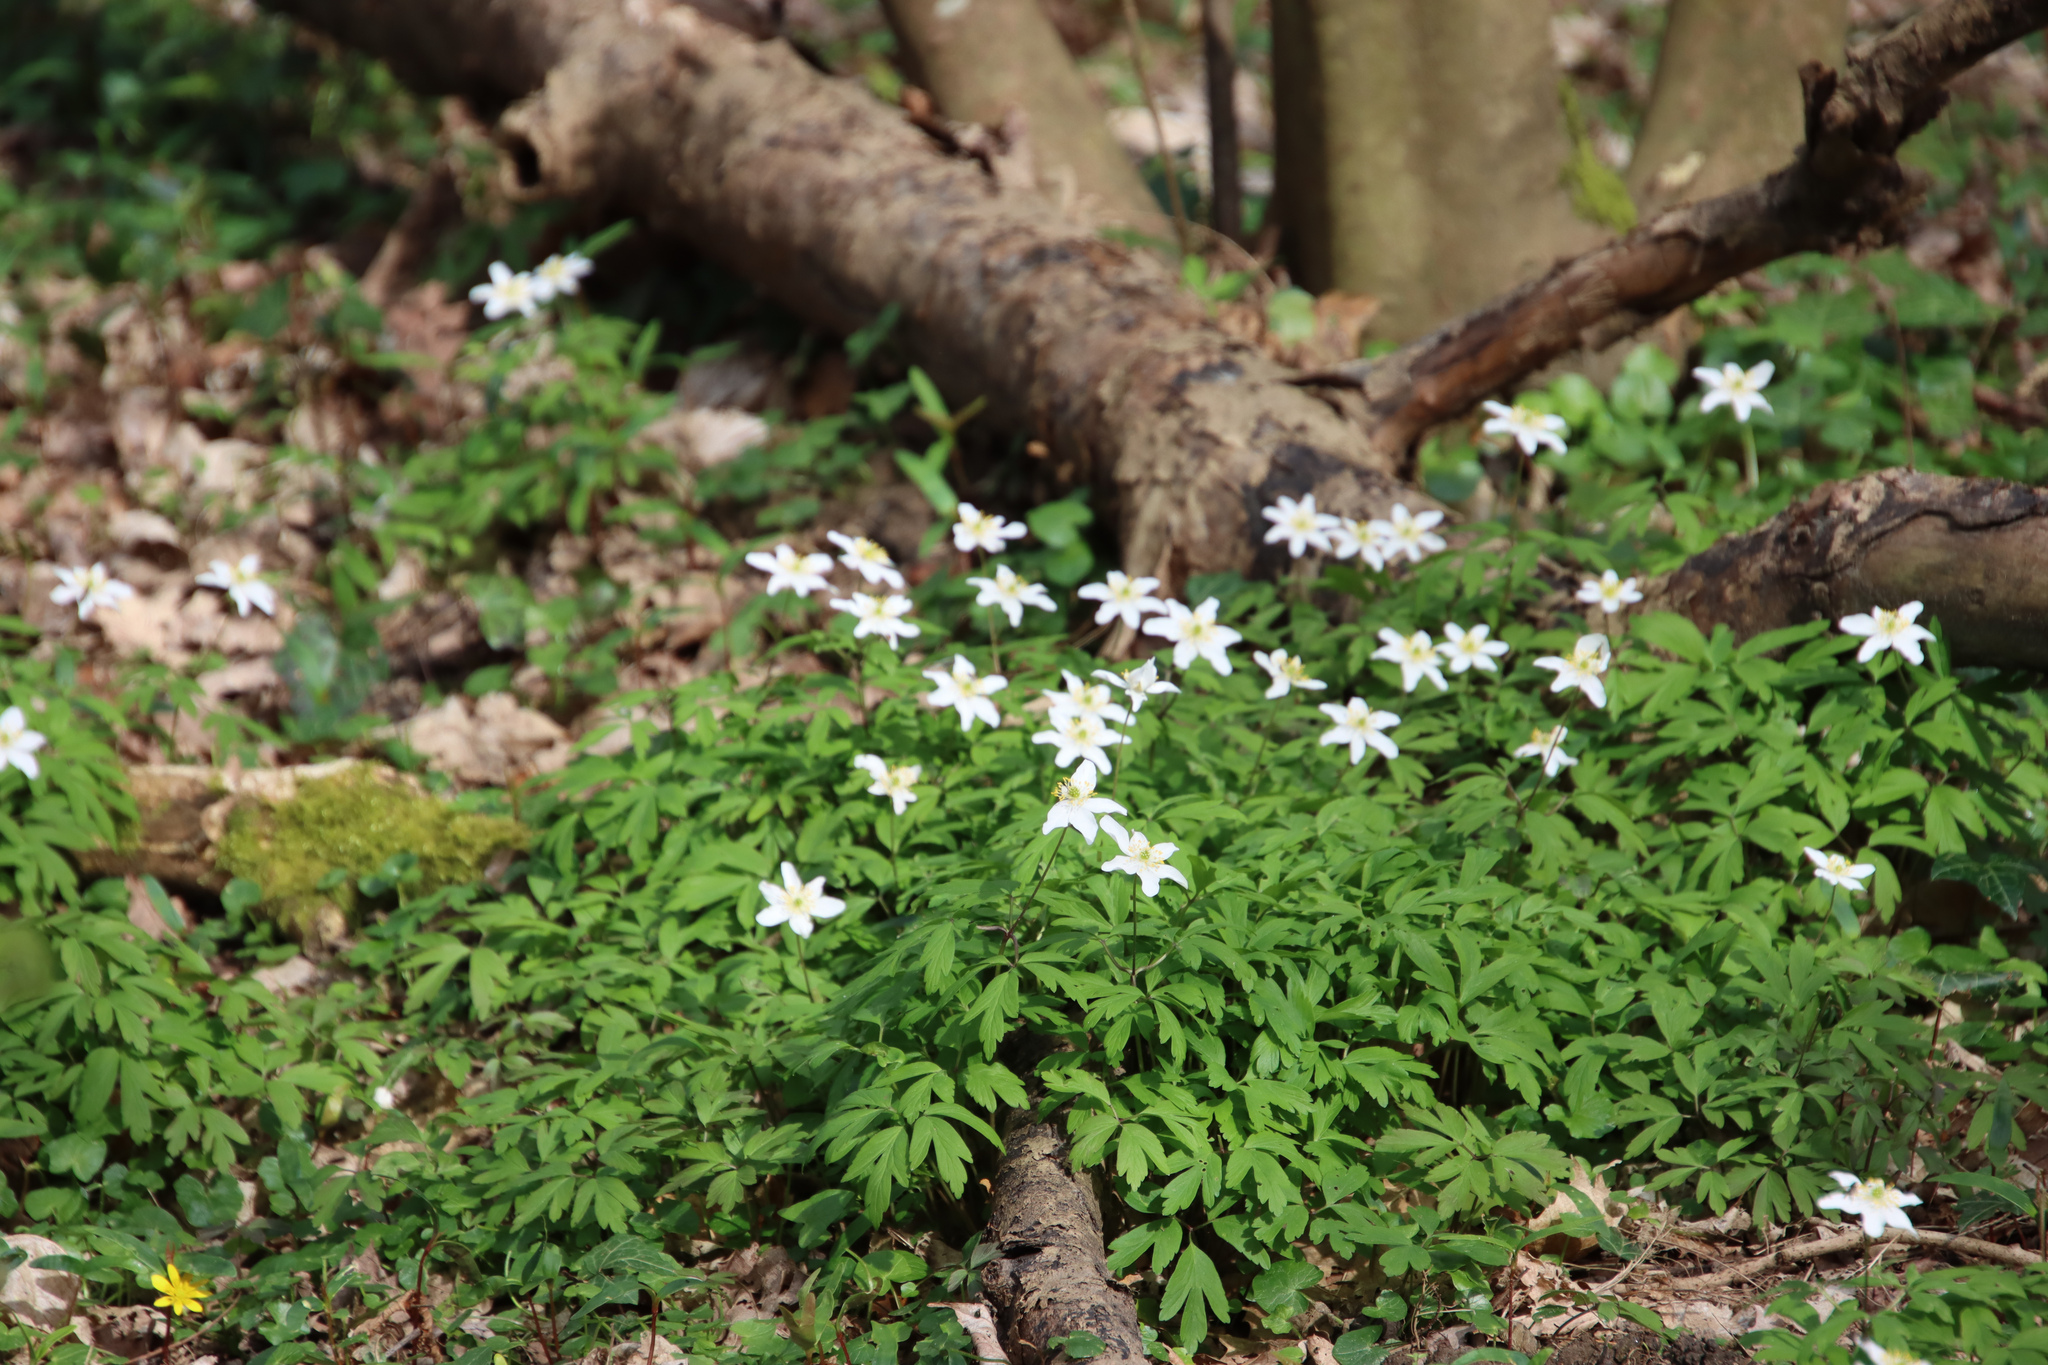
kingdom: Plantae
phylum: Tracheophyta
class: Magnoliopsida
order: Ranunculales
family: Ranunculaceae
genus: Anemone
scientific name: Anemone nemorosa
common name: Wood anemone
